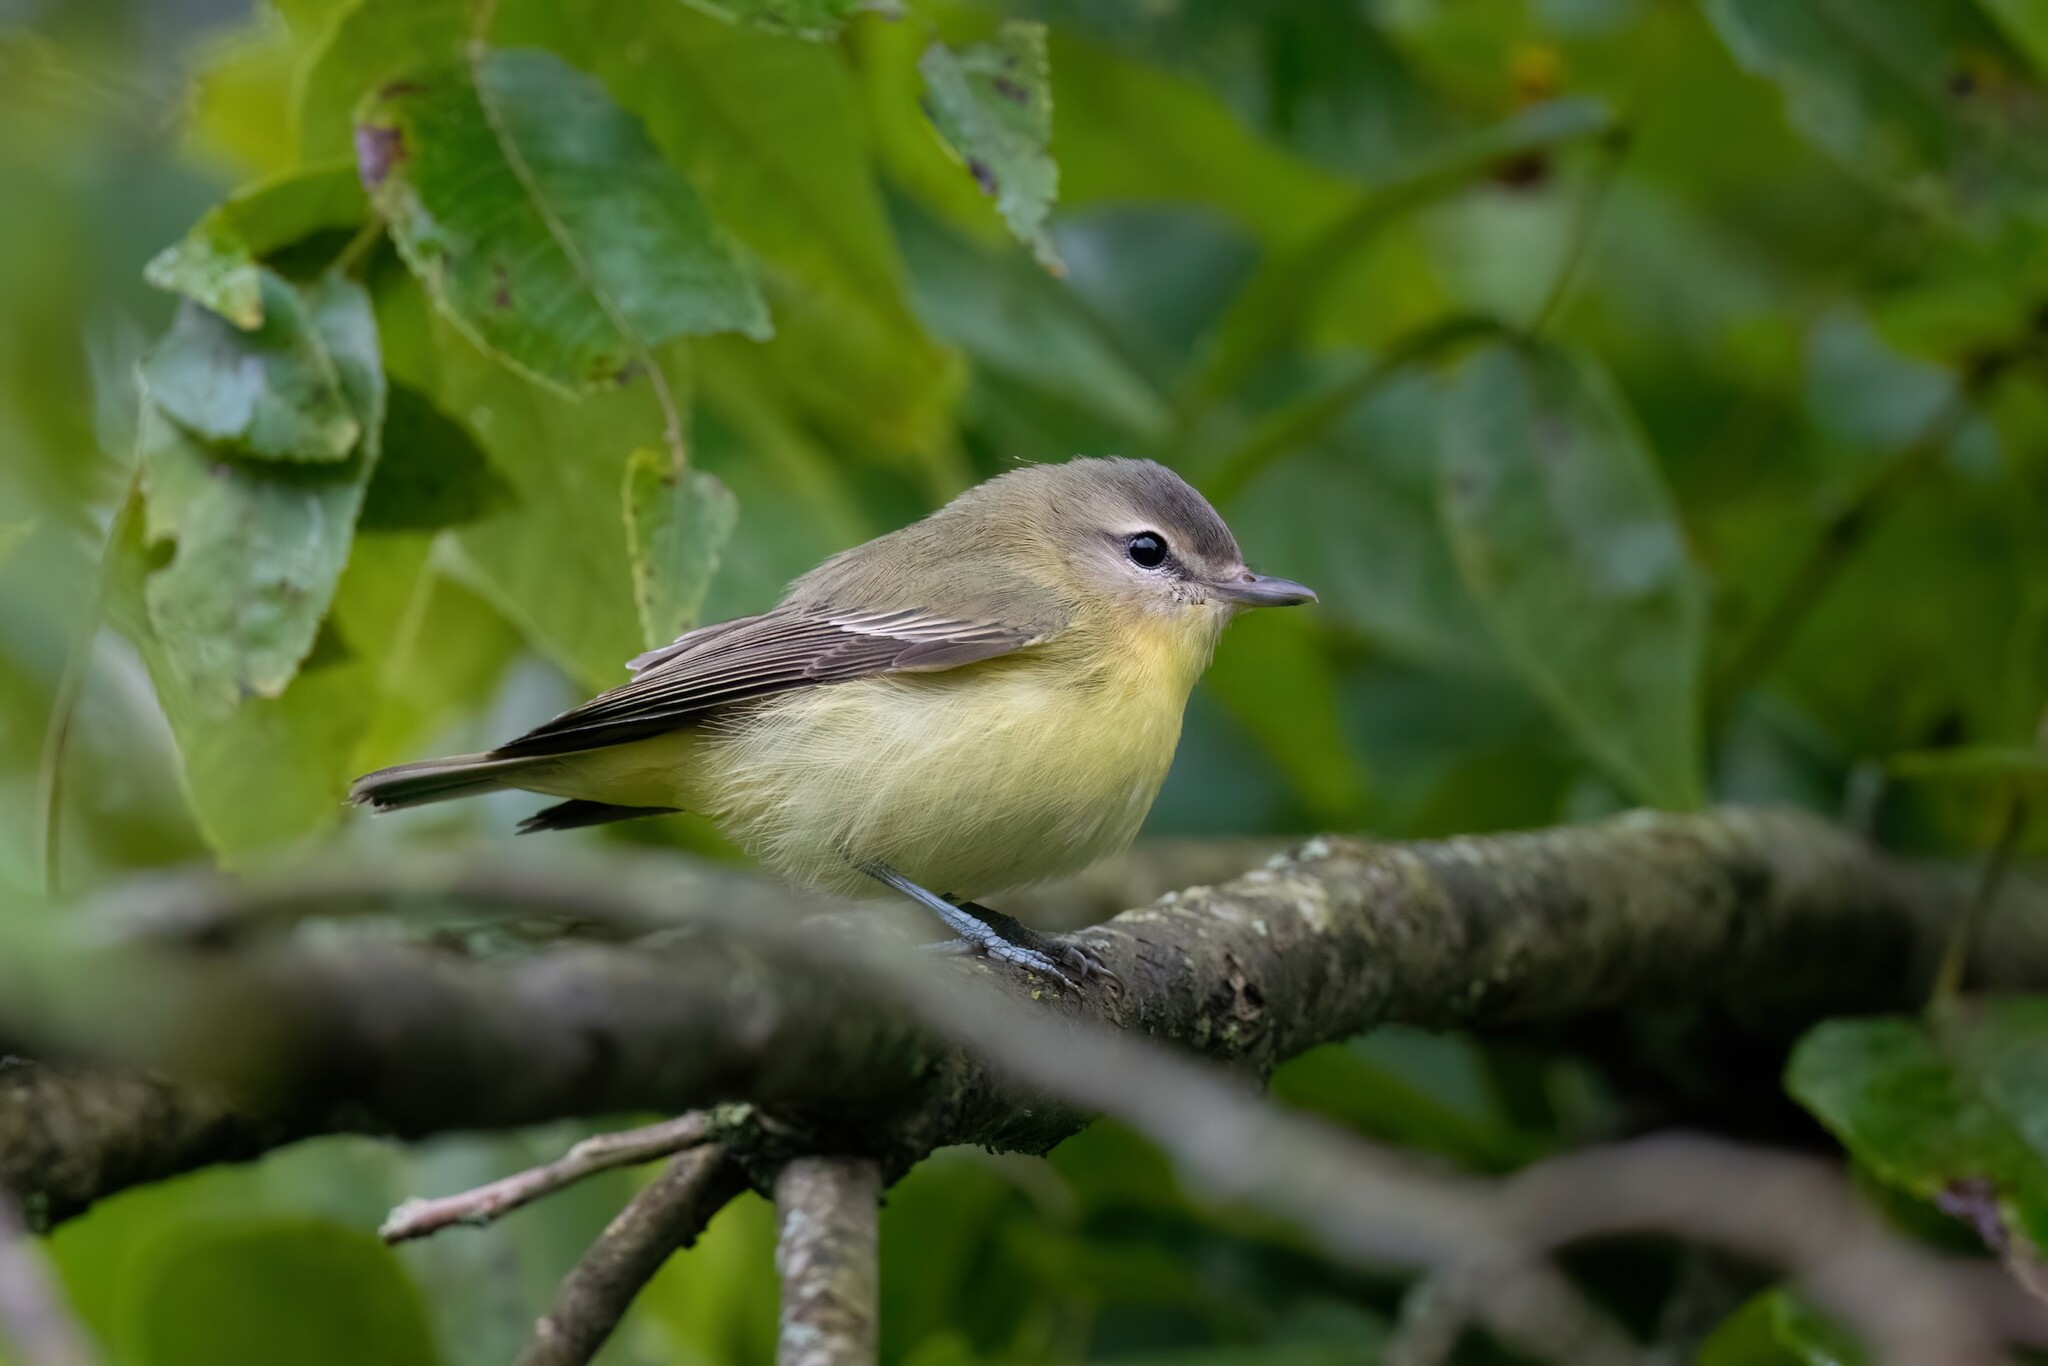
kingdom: Animalia
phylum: Chordata
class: Aves
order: Passeriformes
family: Vireonidae
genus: Vireo
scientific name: Vireo philadelphicus
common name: Philadelphia vireo
